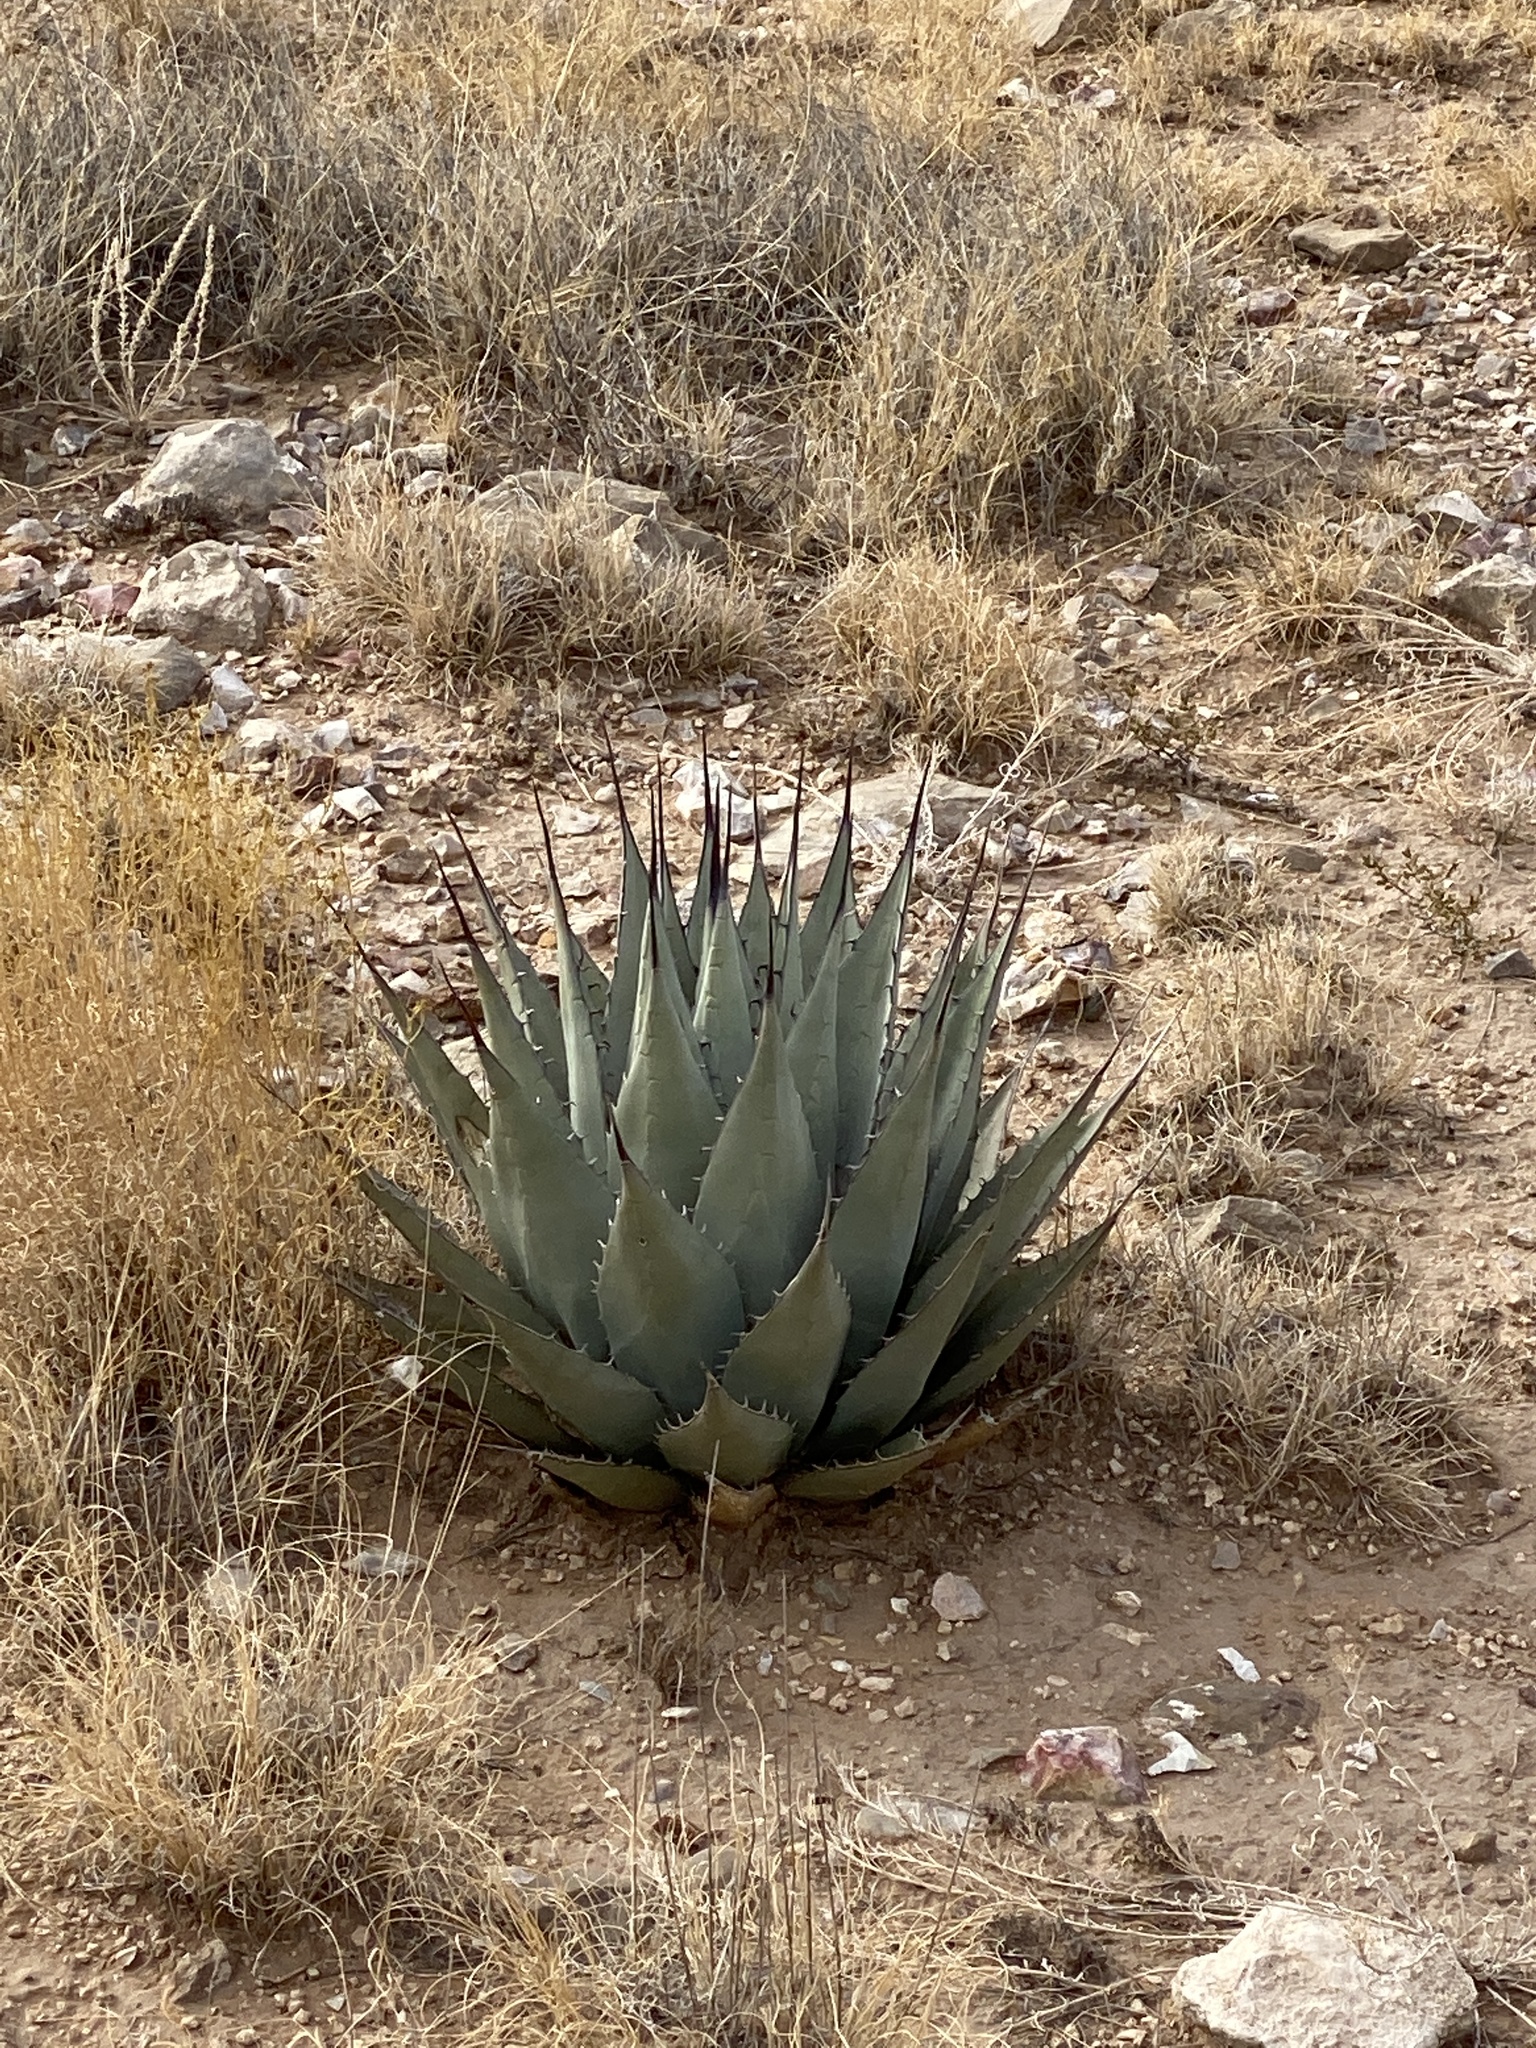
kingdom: Plantae
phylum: Tracheophyta
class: Liliopsida
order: Asparagales
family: Asparagaceae
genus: Agave
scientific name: Agave parryi
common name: Parry's agave
